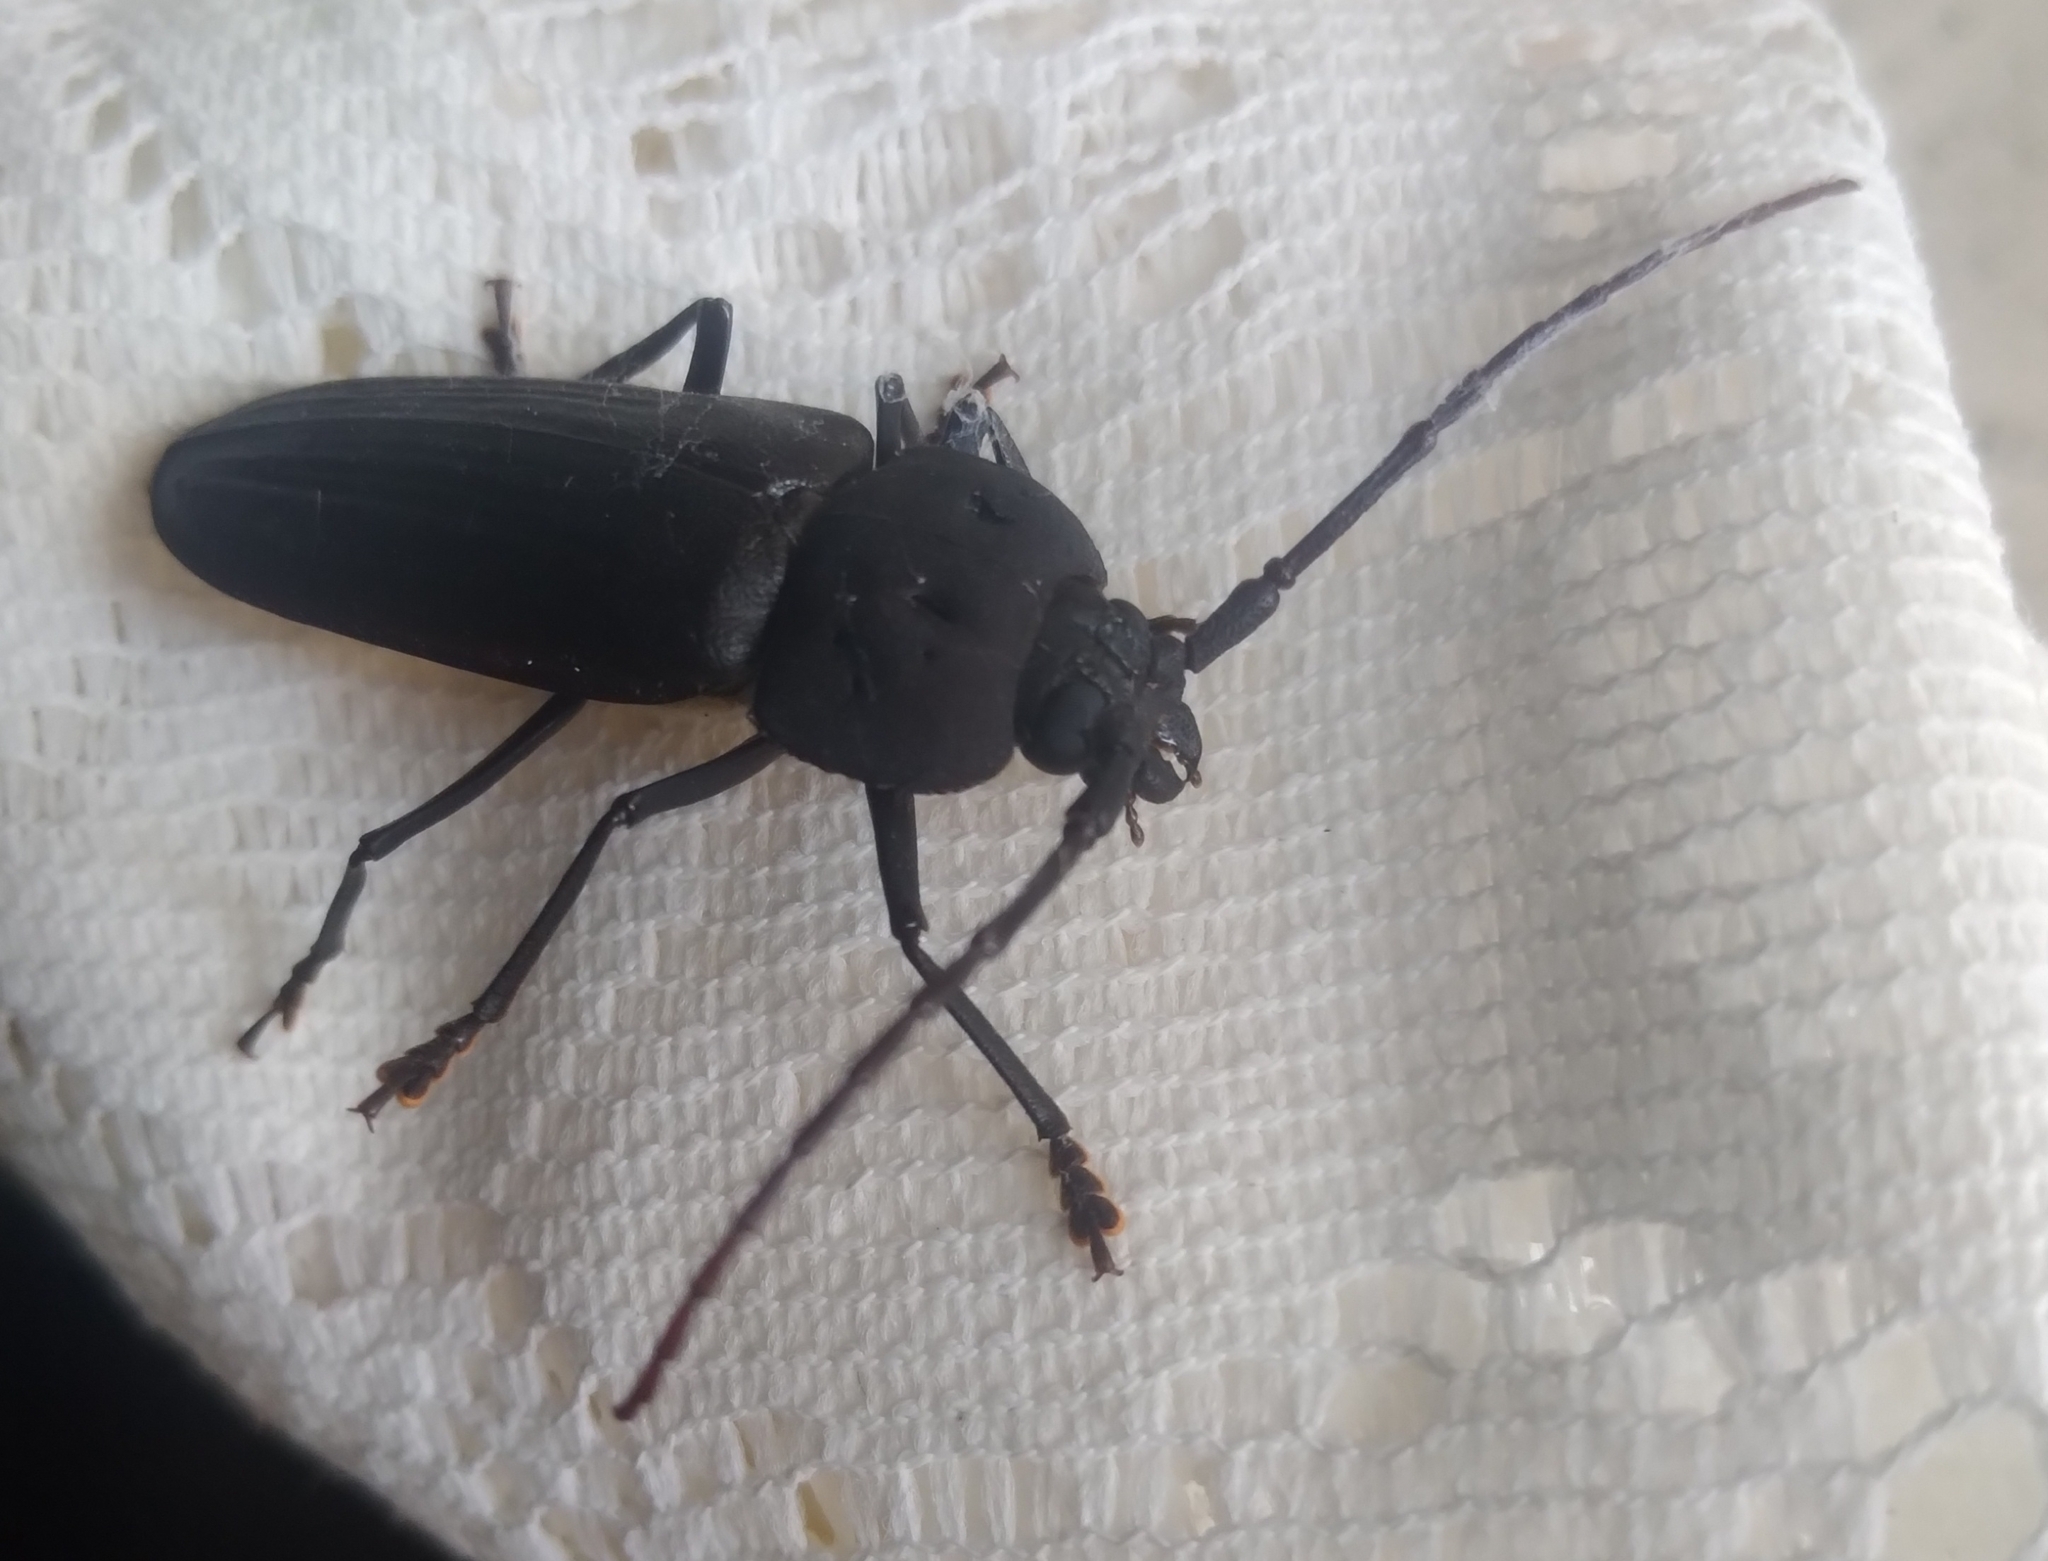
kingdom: Animalia
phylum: Arthropoda
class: Insecta
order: Coleoptera
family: Cerambycidae
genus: Navosoma
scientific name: Navosoma luctuosum
